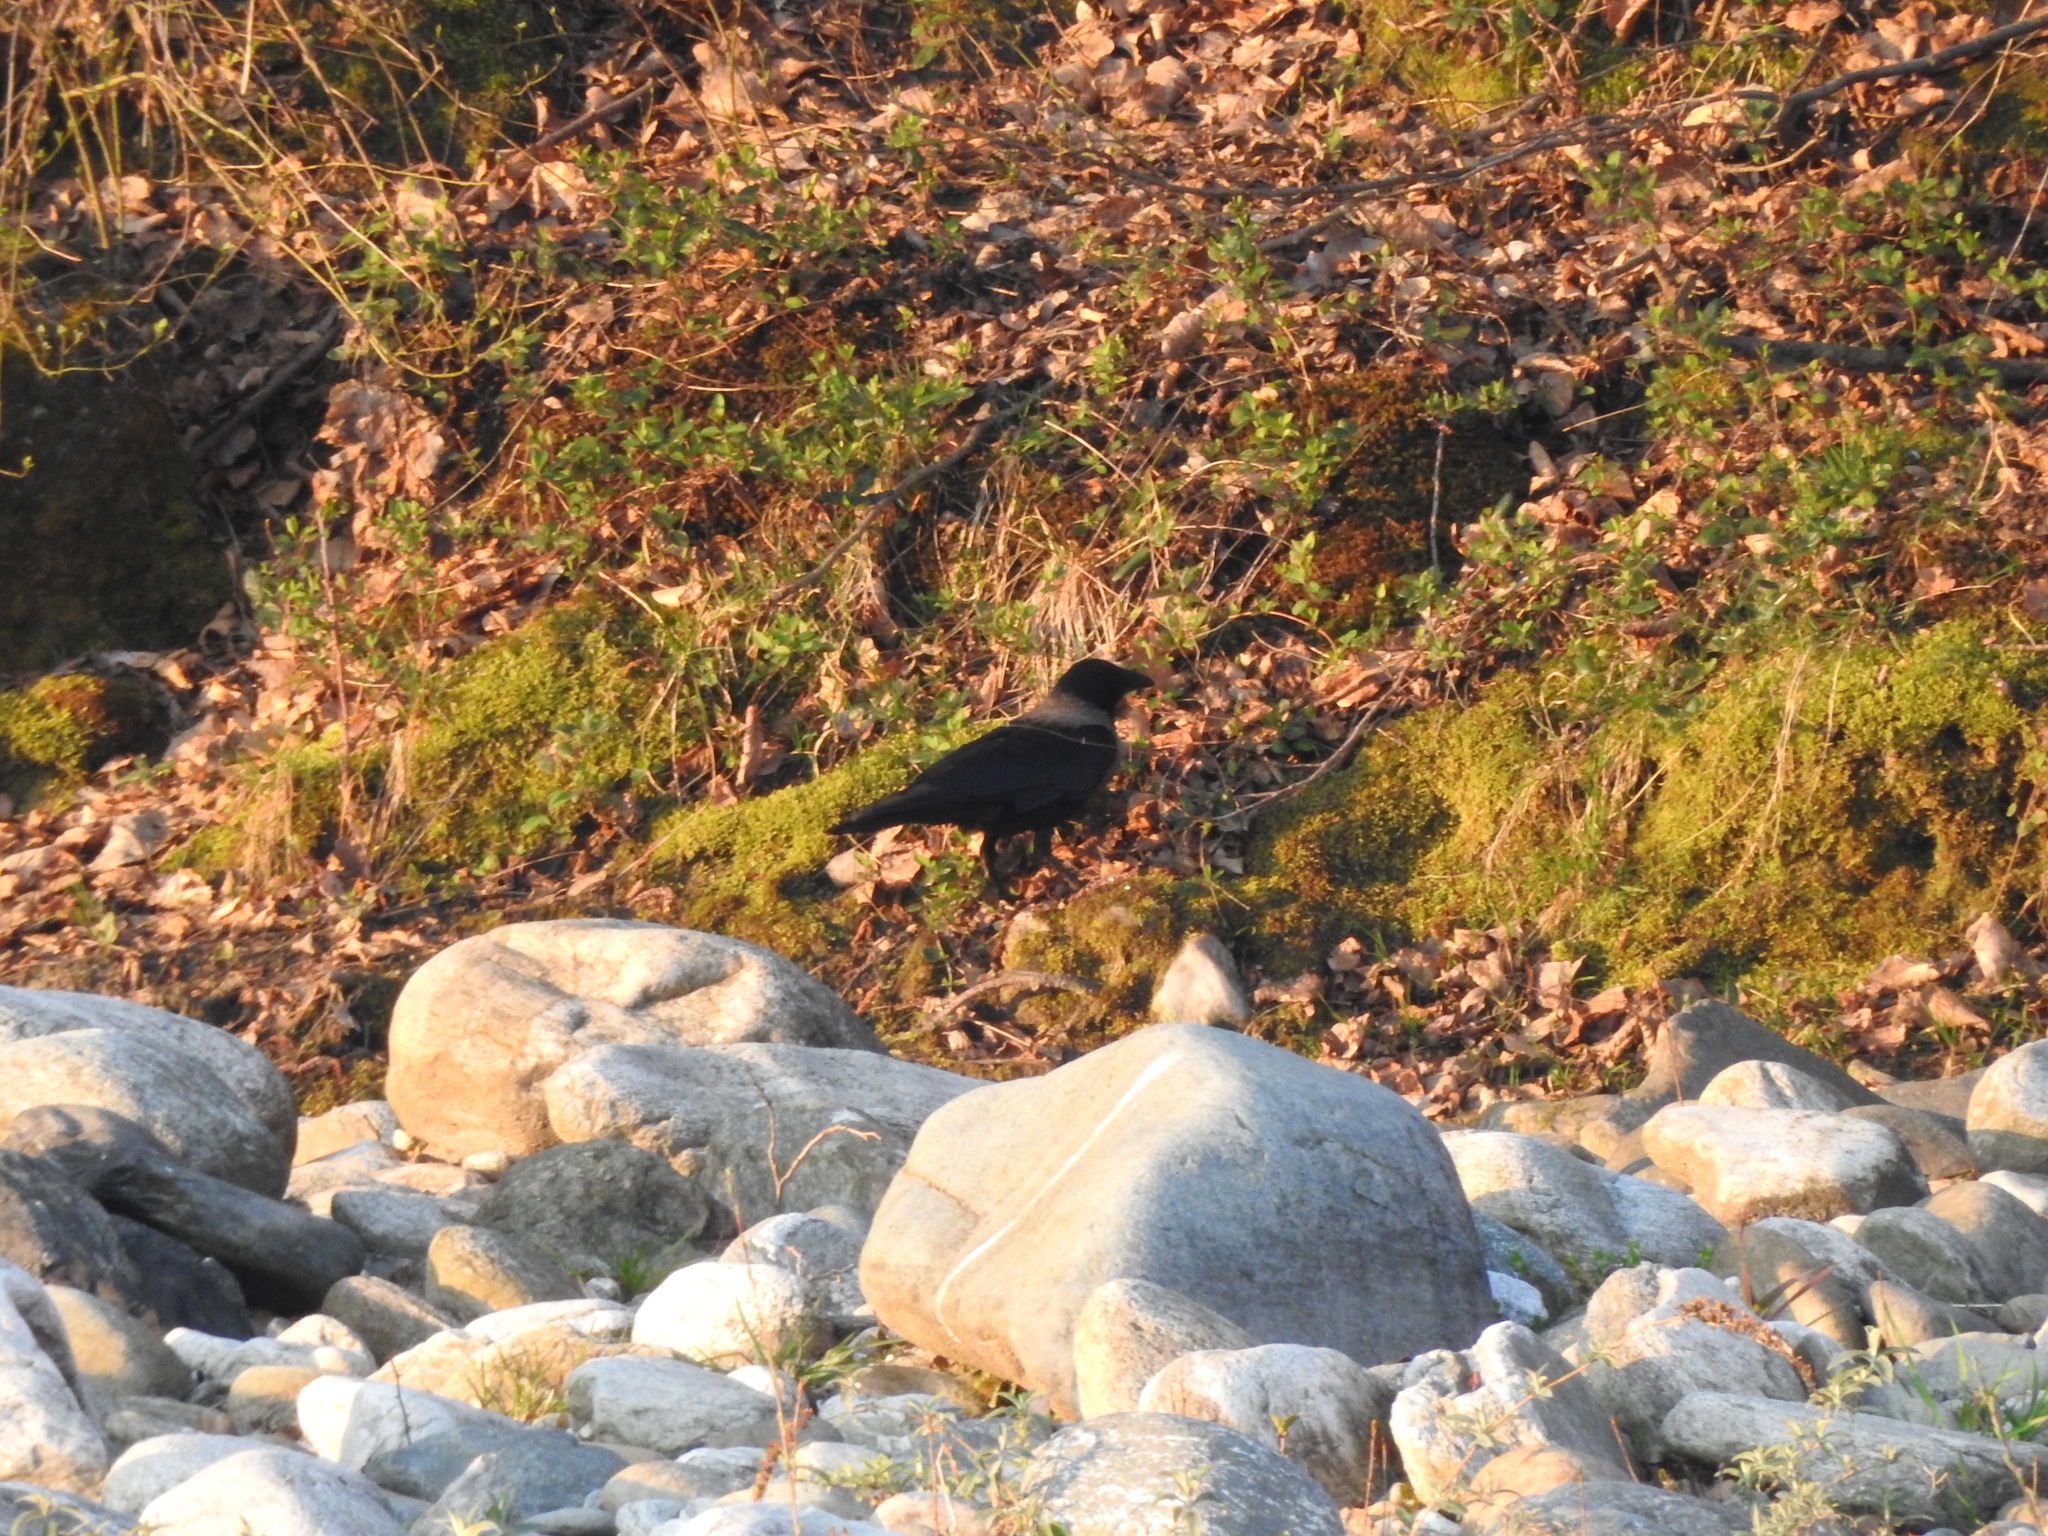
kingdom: Animalia
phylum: Chordata
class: Aves
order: Passeriformes
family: Corvidae
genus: Corvus
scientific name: Corvus cornix
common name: Hooded crow
